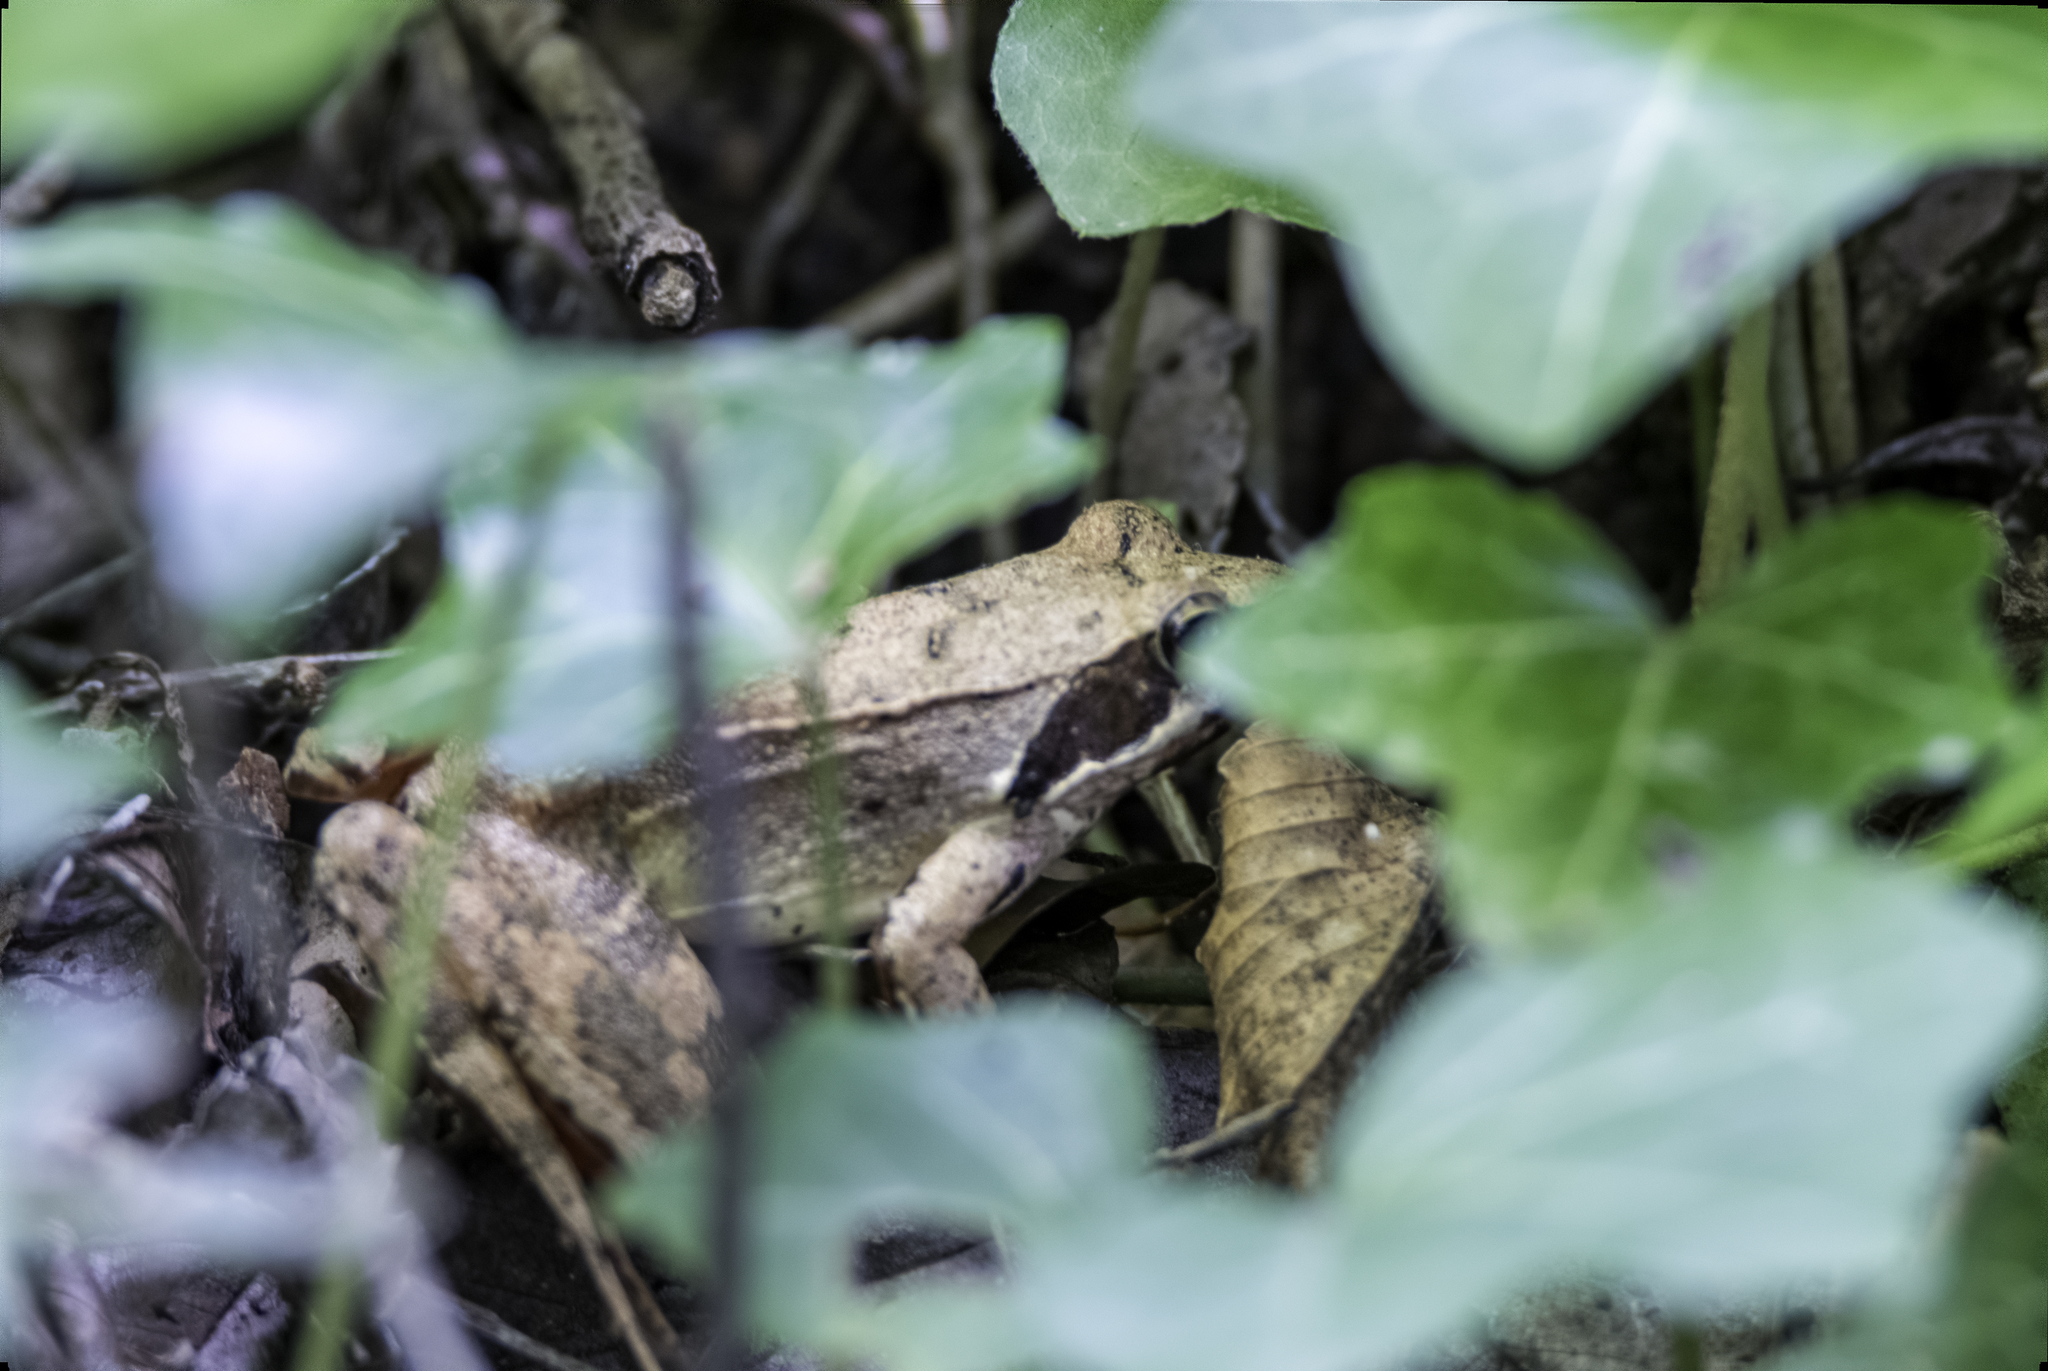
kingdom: Animalia
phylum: Chordata
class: Amphibia
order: Anura
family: Ranidae
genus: Rana
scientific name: Rana latastei
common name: Italian agile frog
